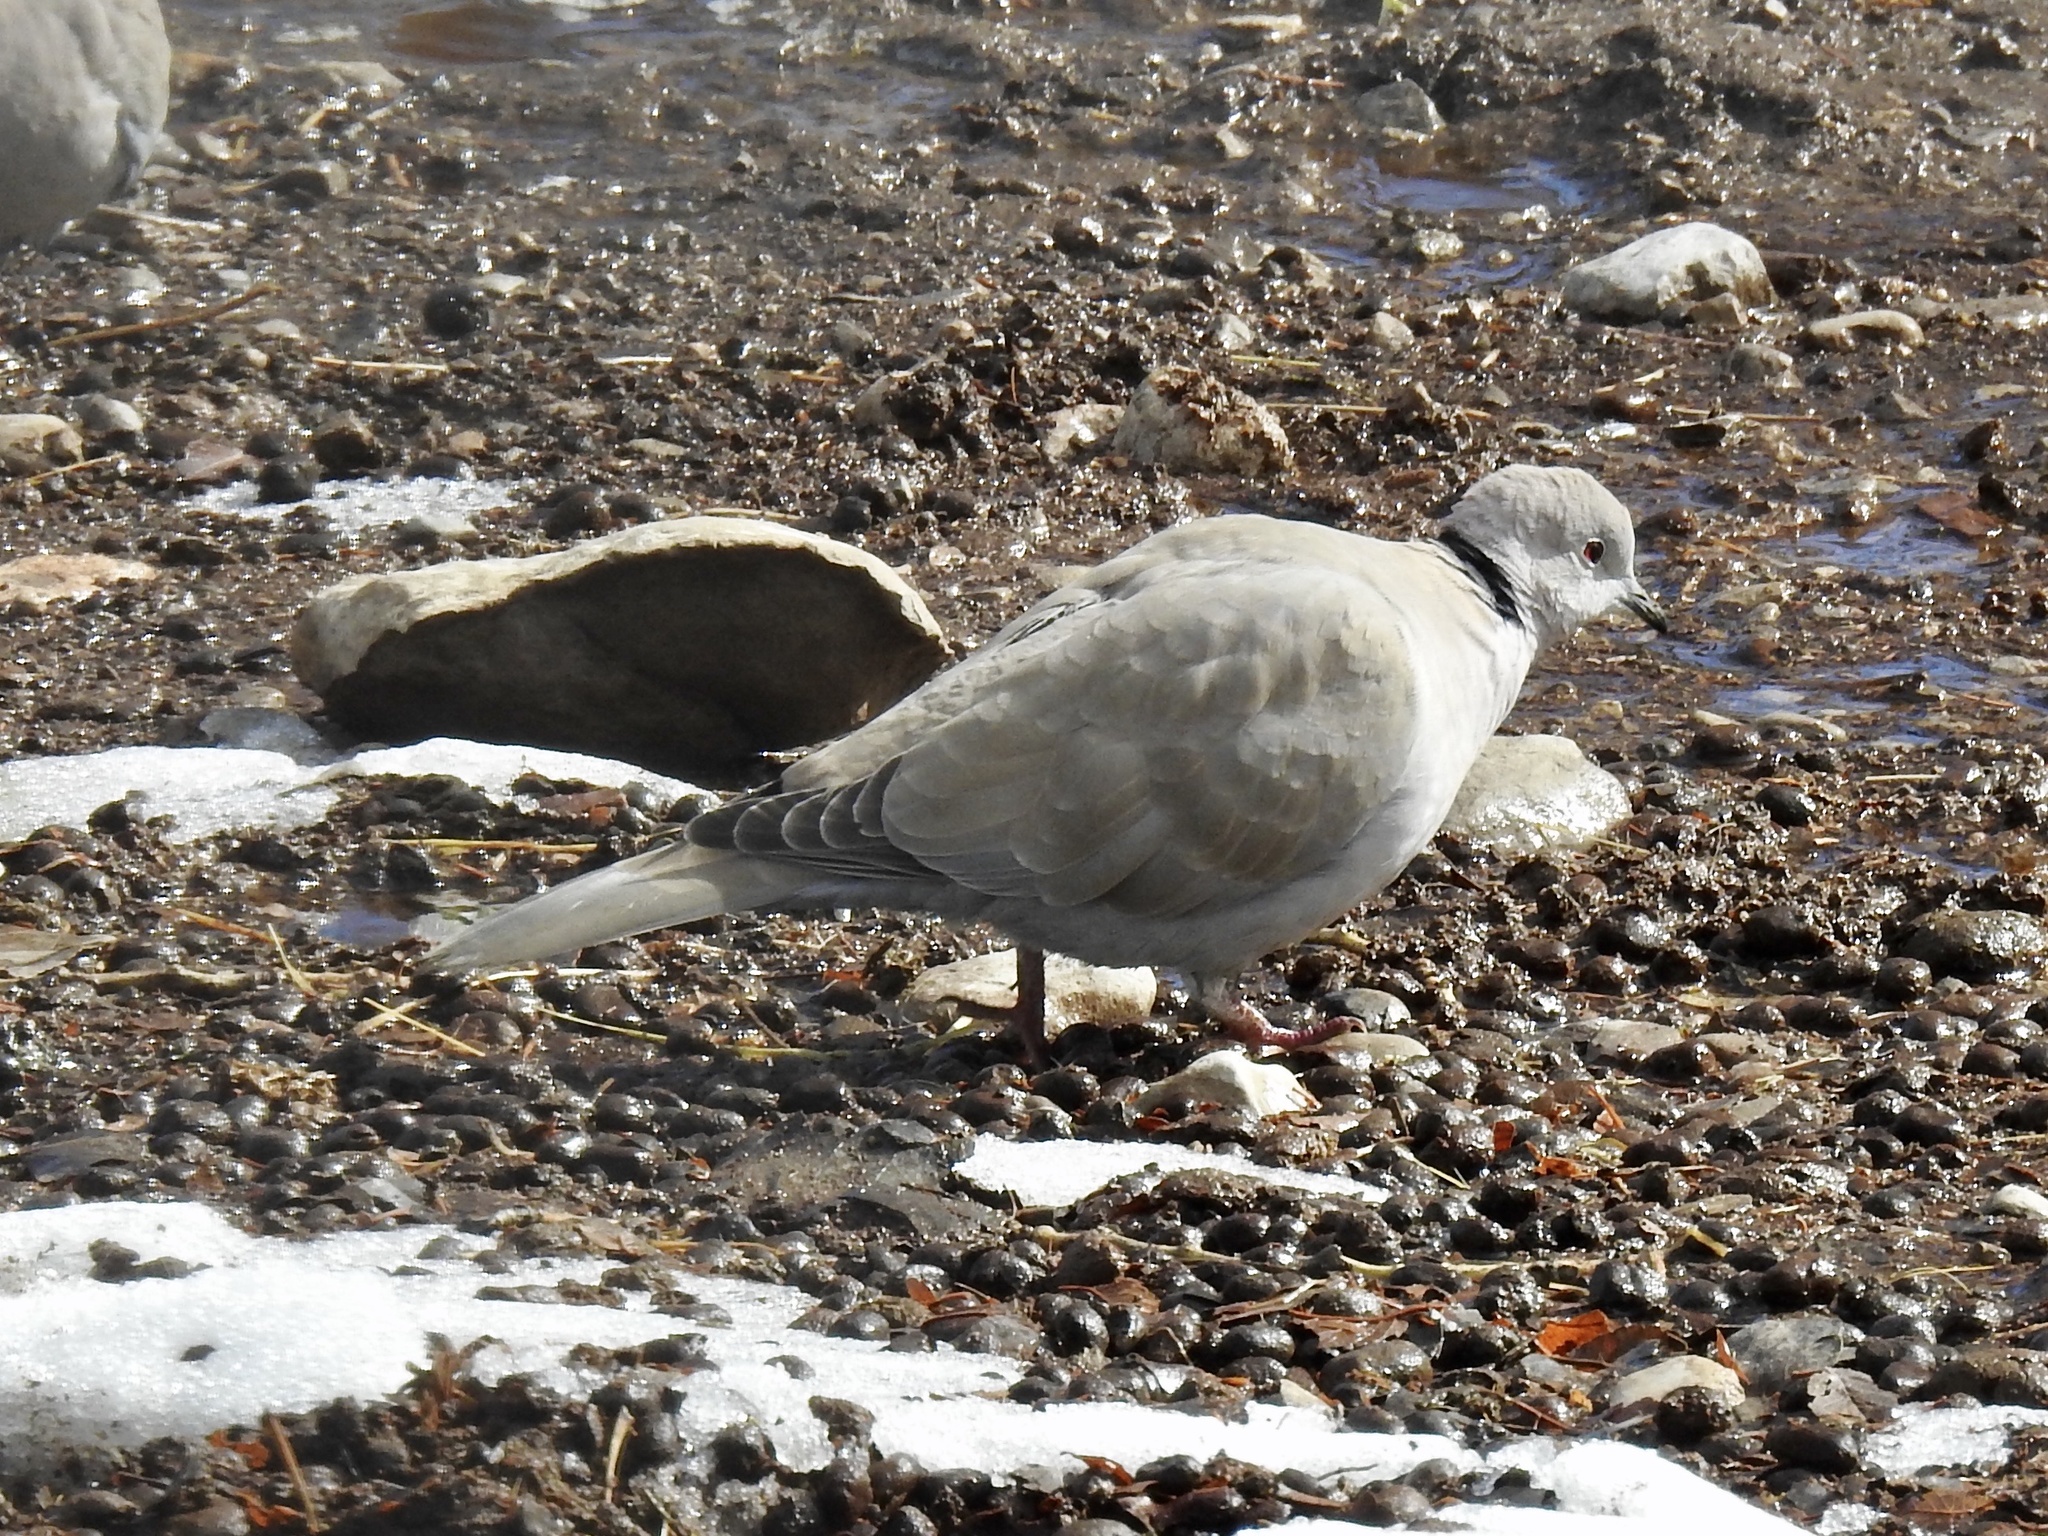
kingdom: Animalia
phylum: Chordata
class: Aves
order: Columbiformes
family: Columbidae
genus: Streptopelia
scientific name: Streptopelia decaocto
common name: Eurasian collared dove
